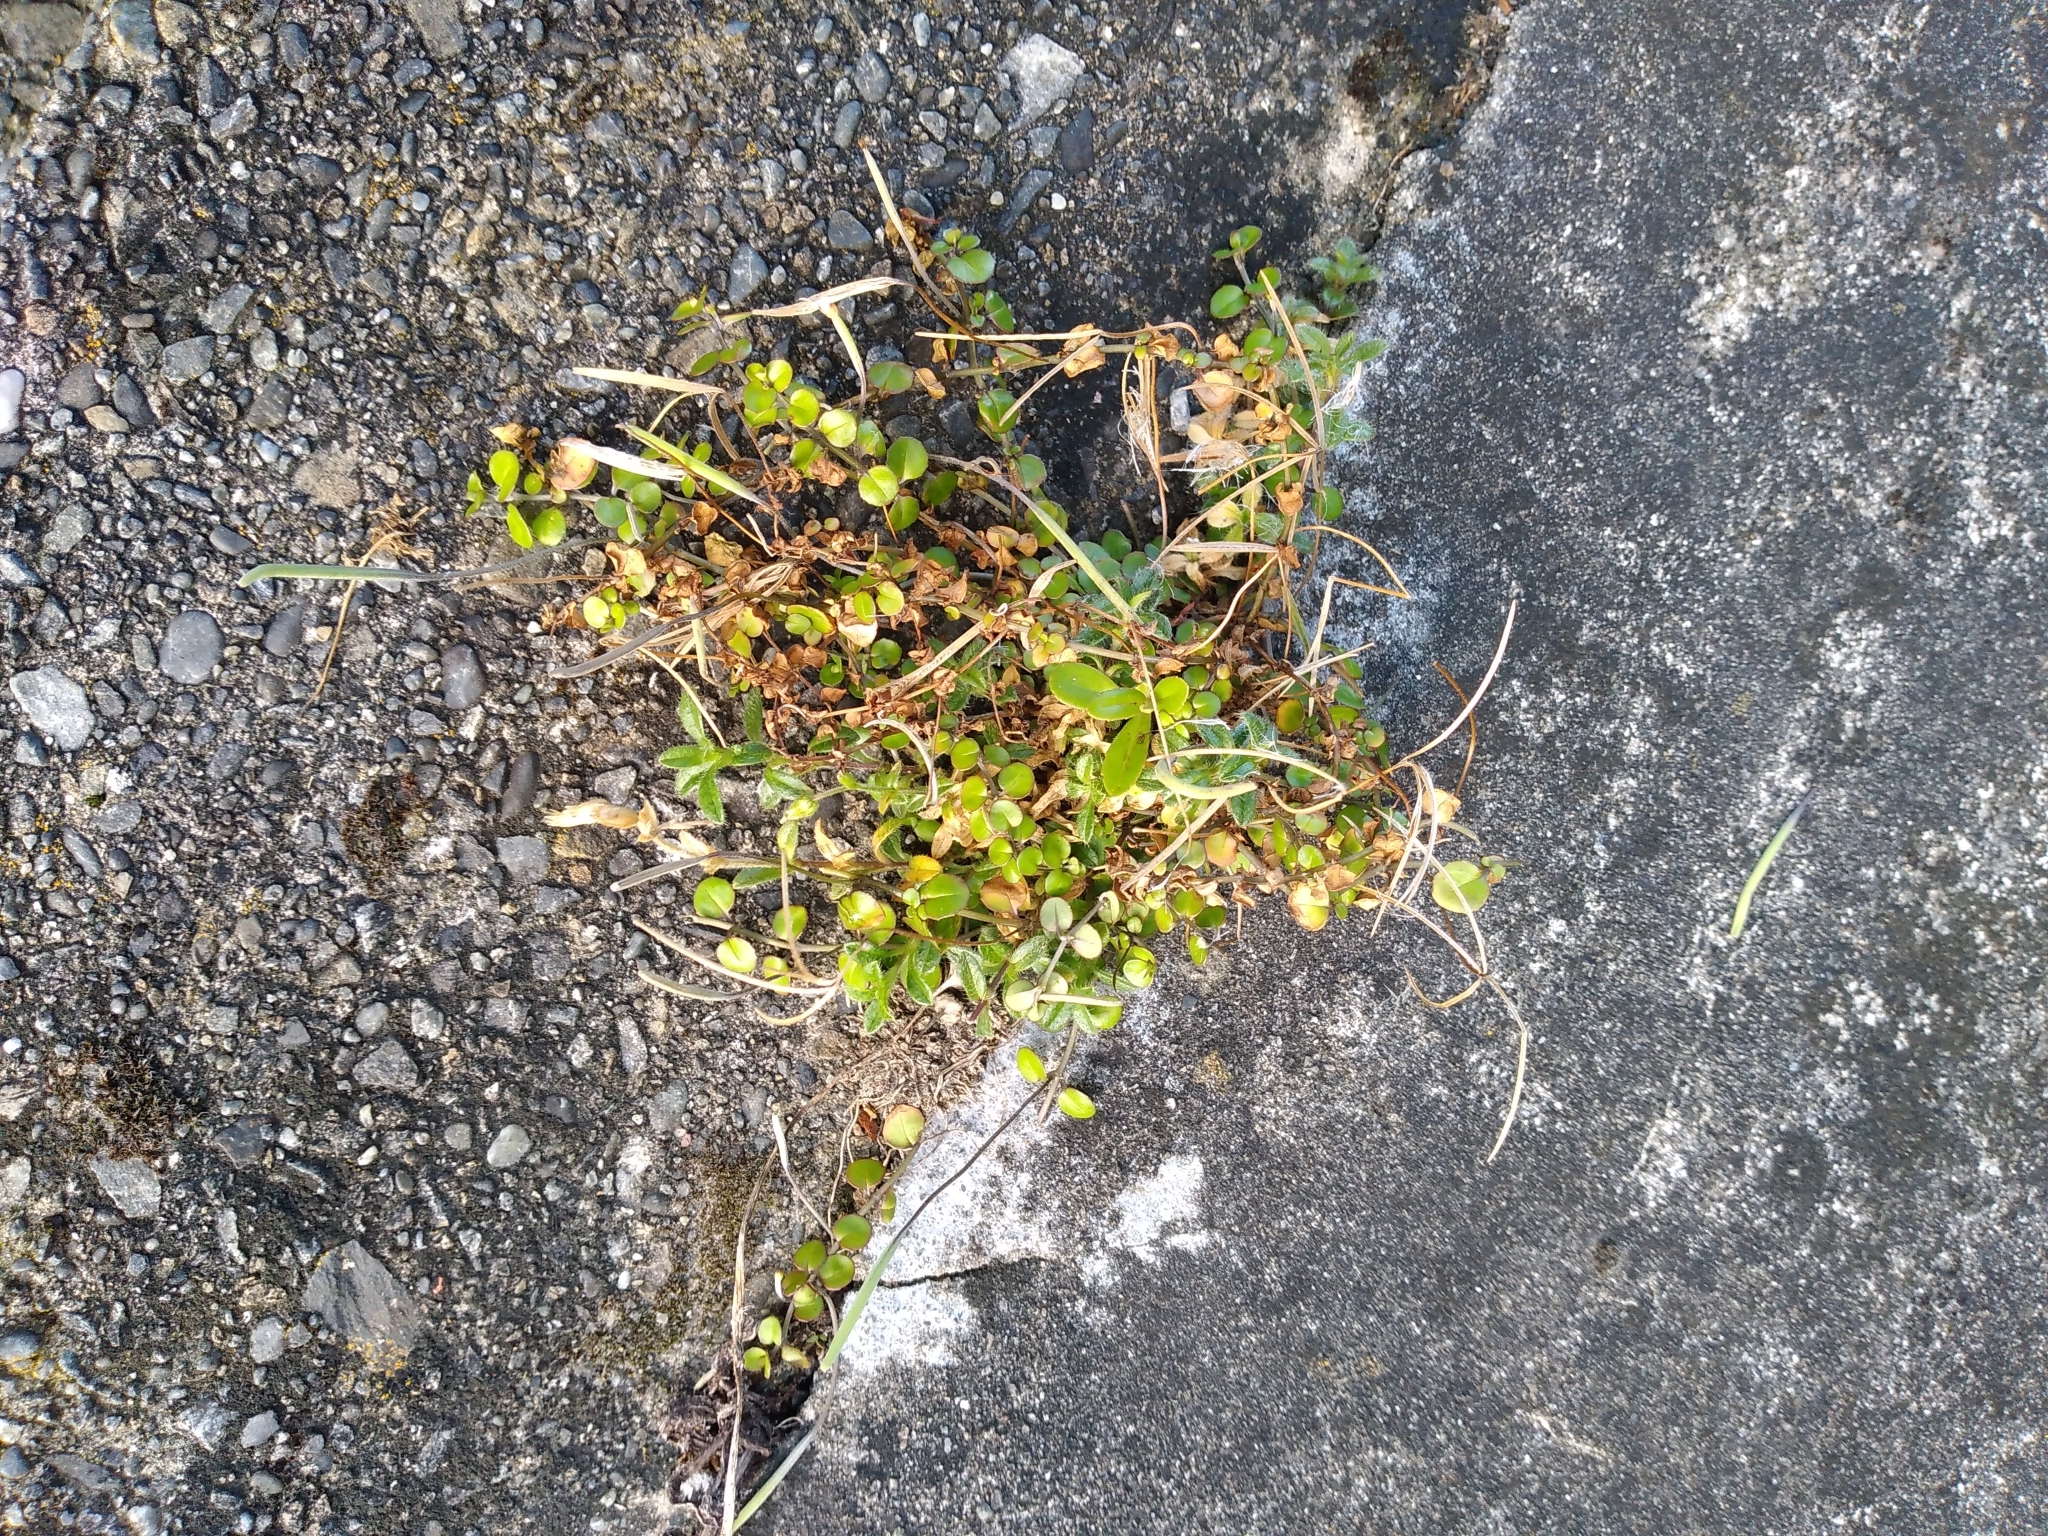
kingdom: Plantae
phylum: Tracheophyta
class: Magnoliopsida
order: Myrtales
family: Onagraceae
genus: Epilobium
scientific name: Epilobium nummularifolium
